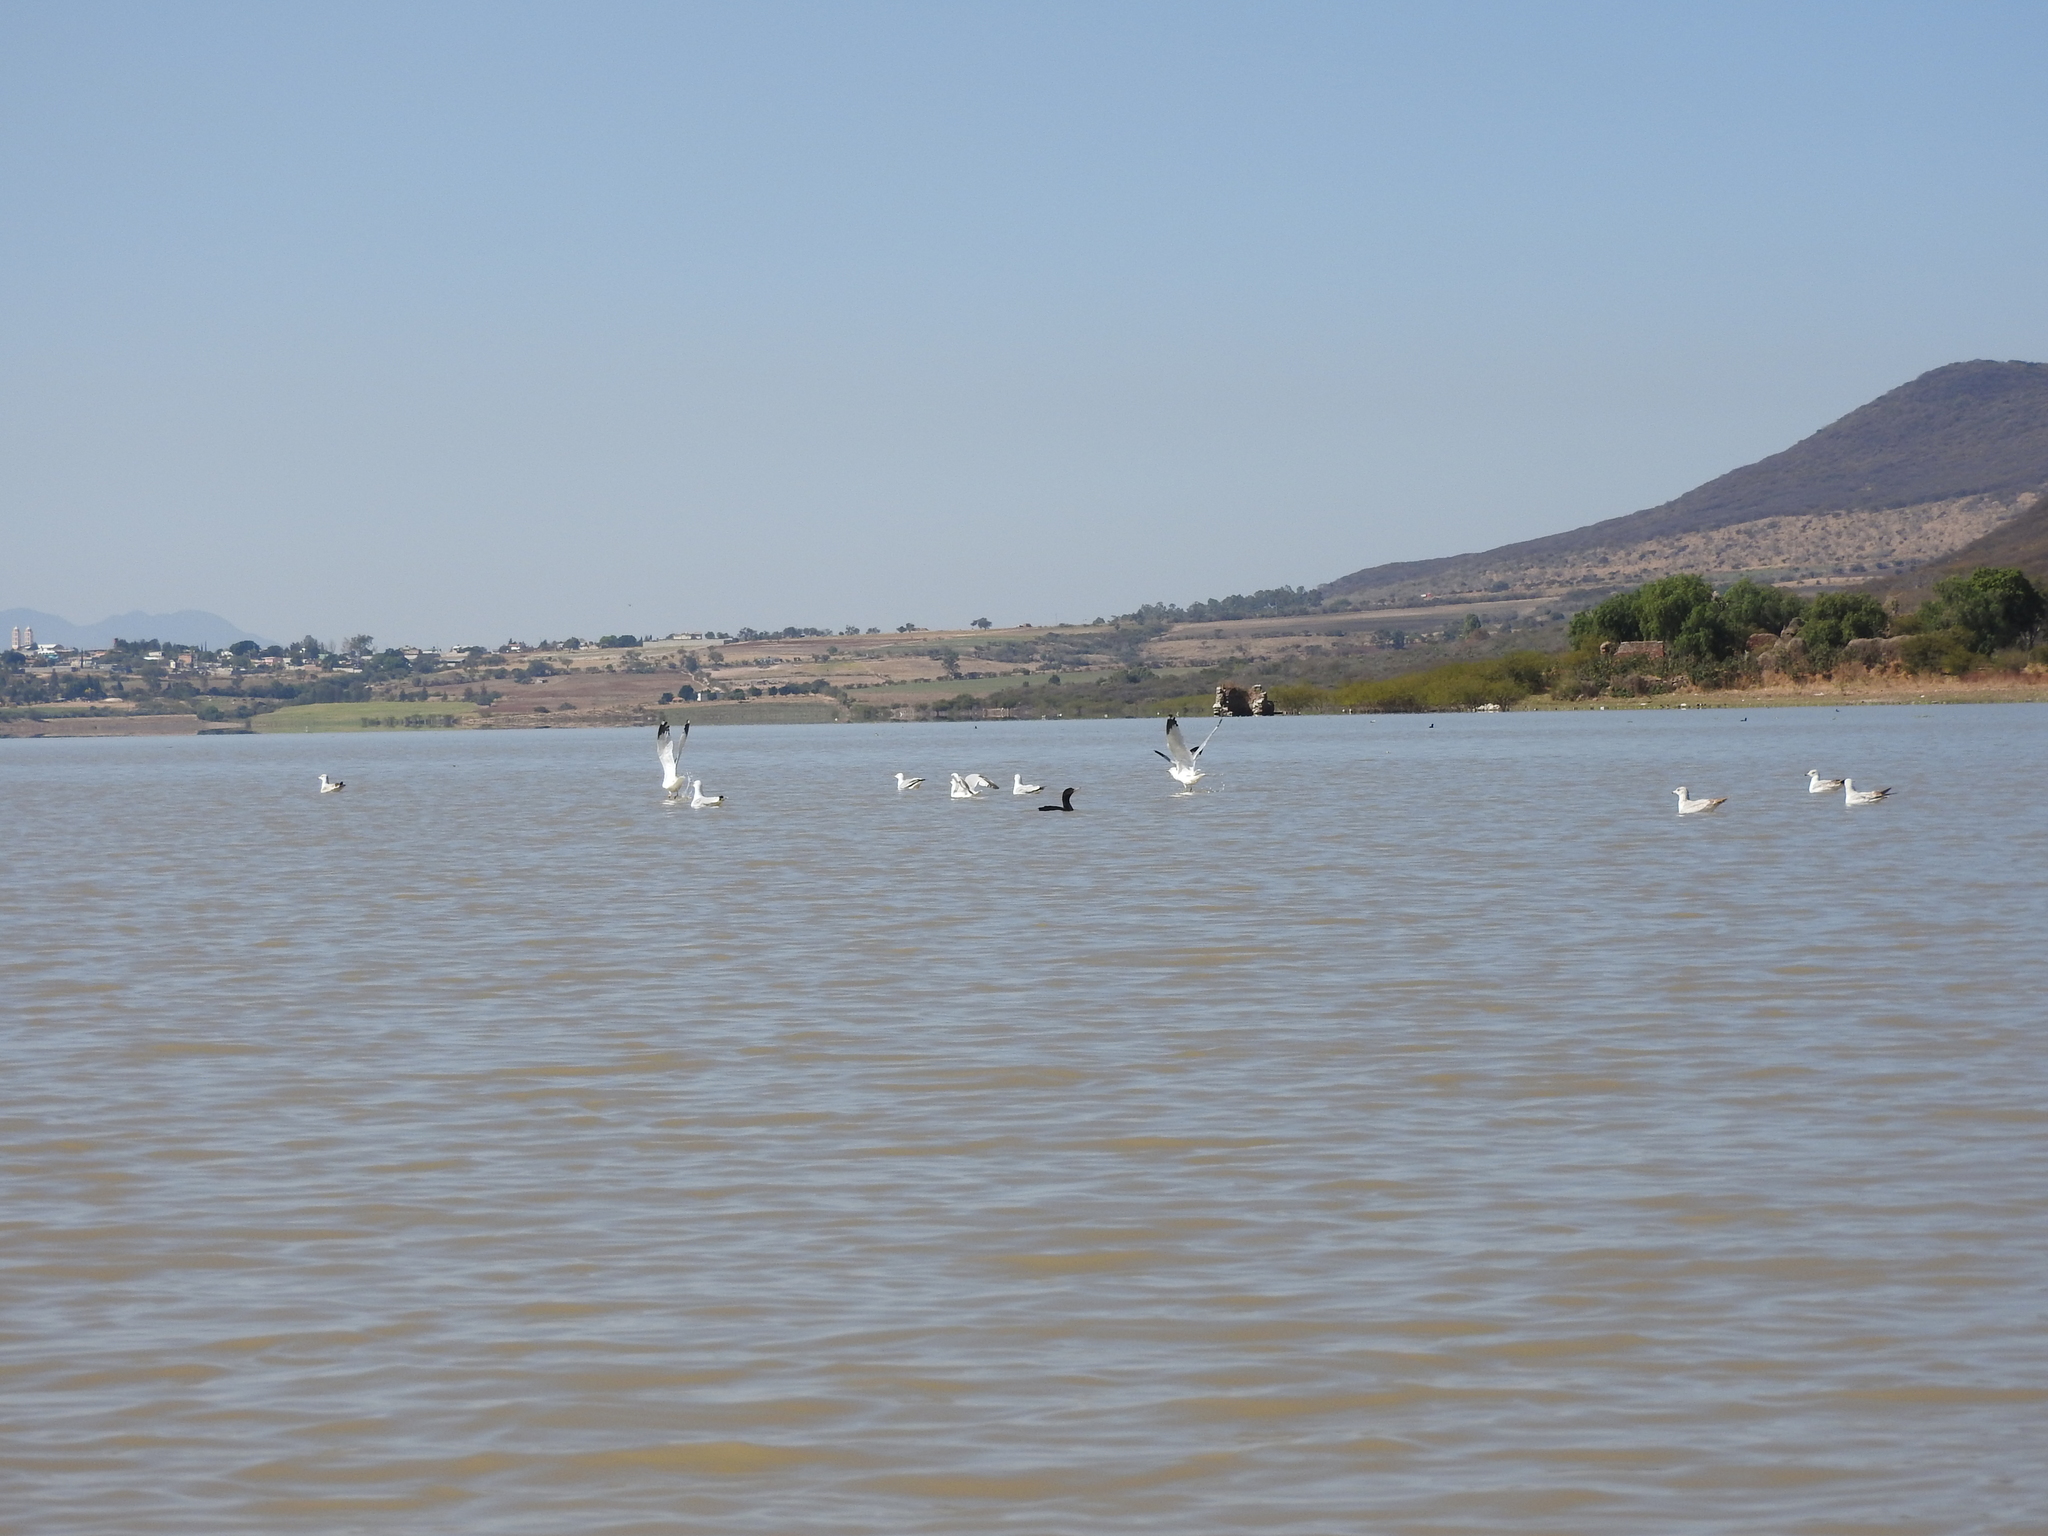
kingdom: Animalia
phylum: Chordata
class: Aves
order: Charadriiformes
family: Laridae
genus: Larus
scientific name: Larus delawarensis
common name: Ring-billed gull
